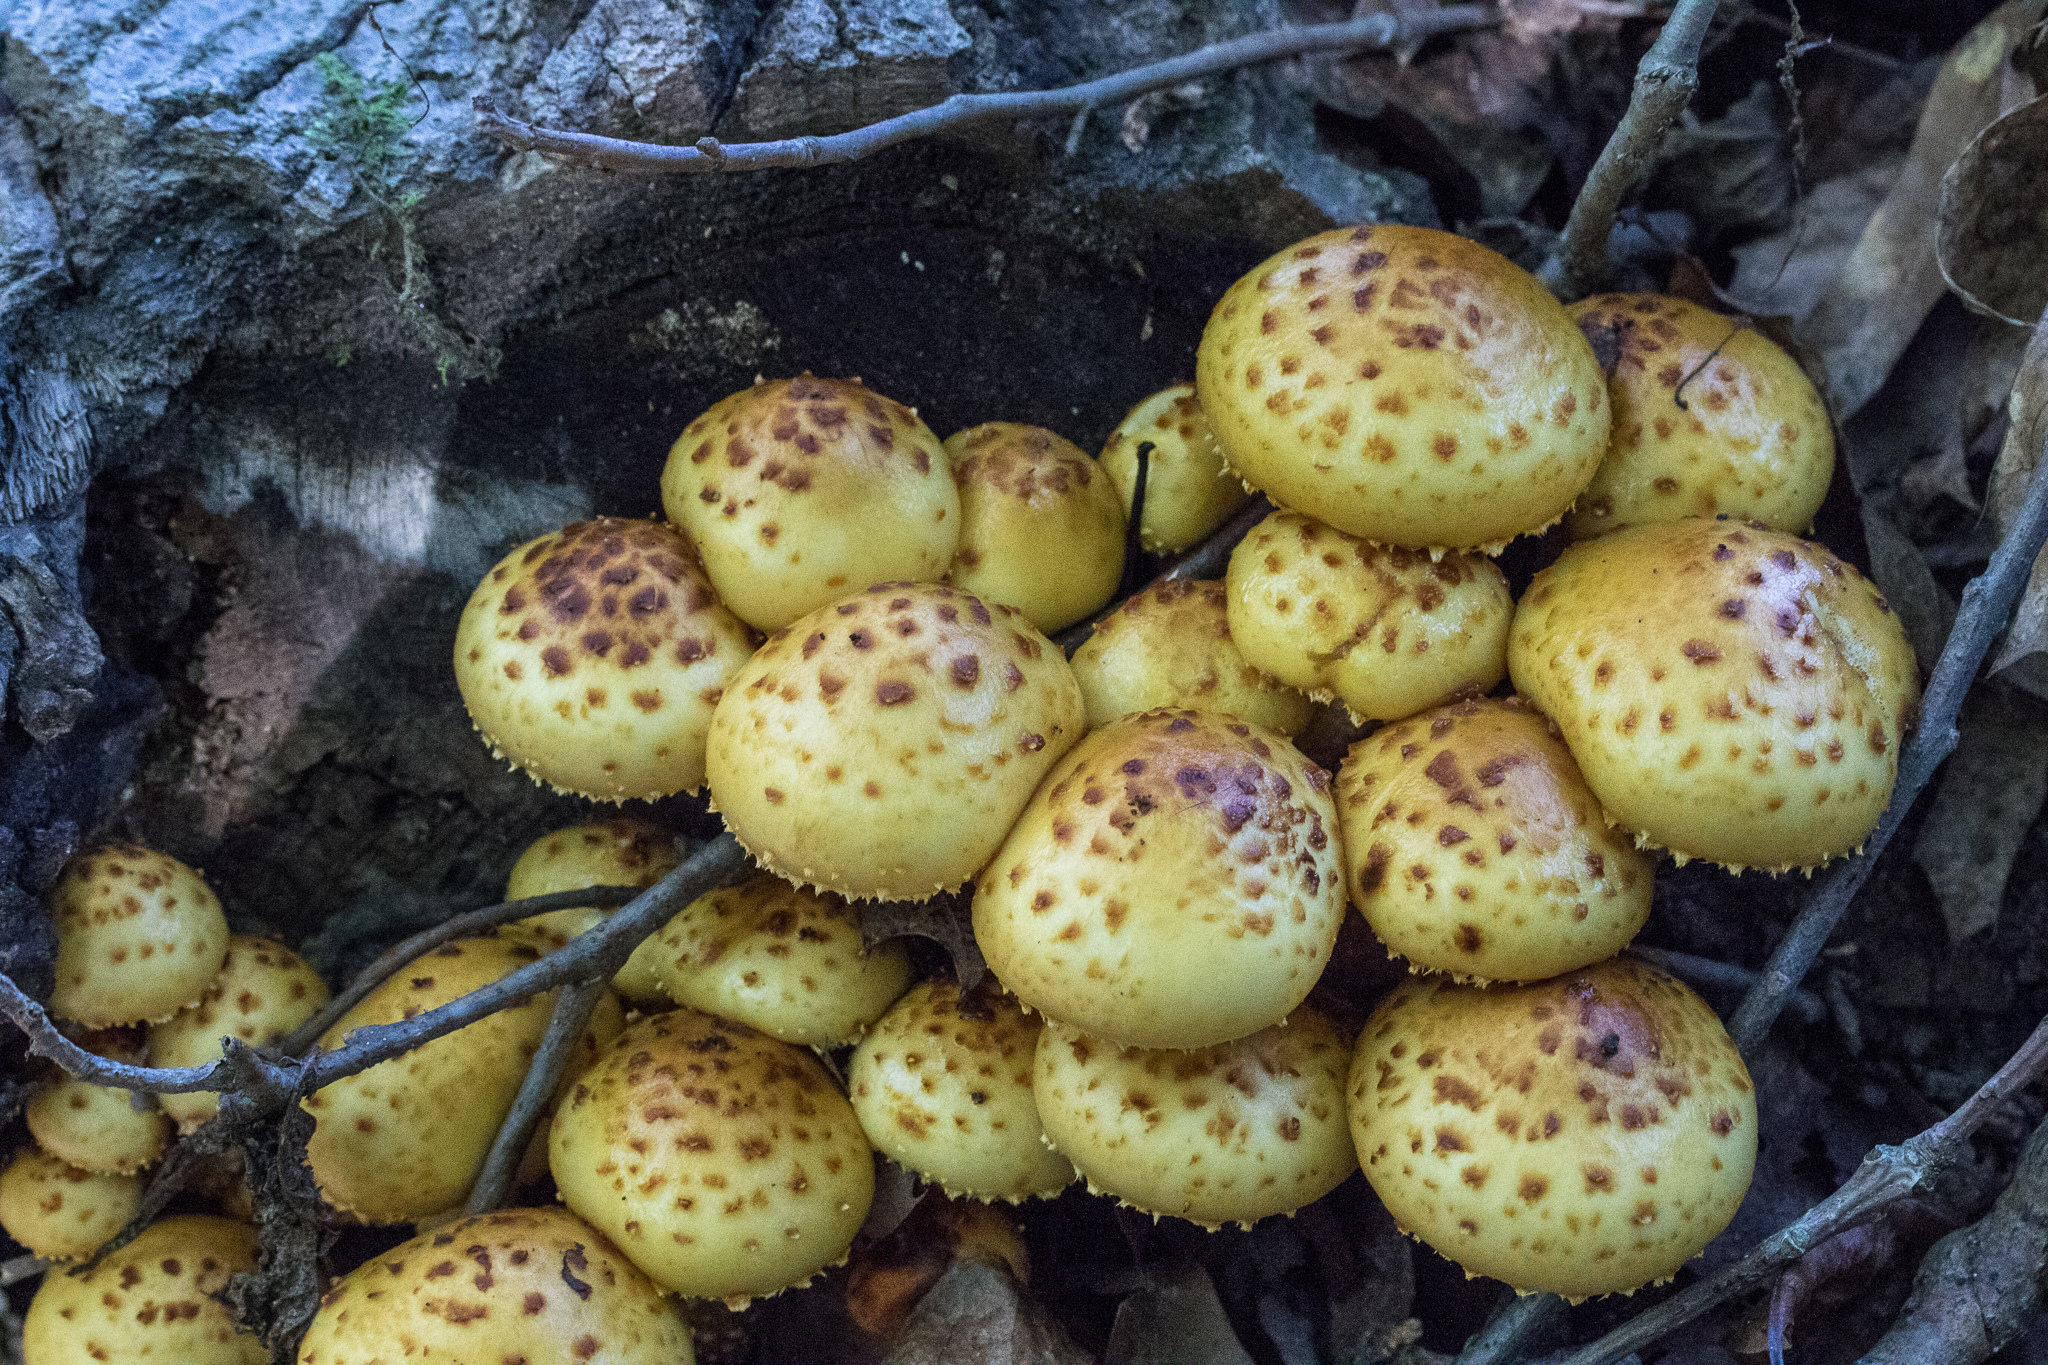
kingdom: Fungi
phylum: Basidiomycota
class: Agaricomycetes
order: Agaricales
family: Strophariaceae
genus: Pholiota
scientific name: Pholiota aurivella
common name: Golden scalycap
